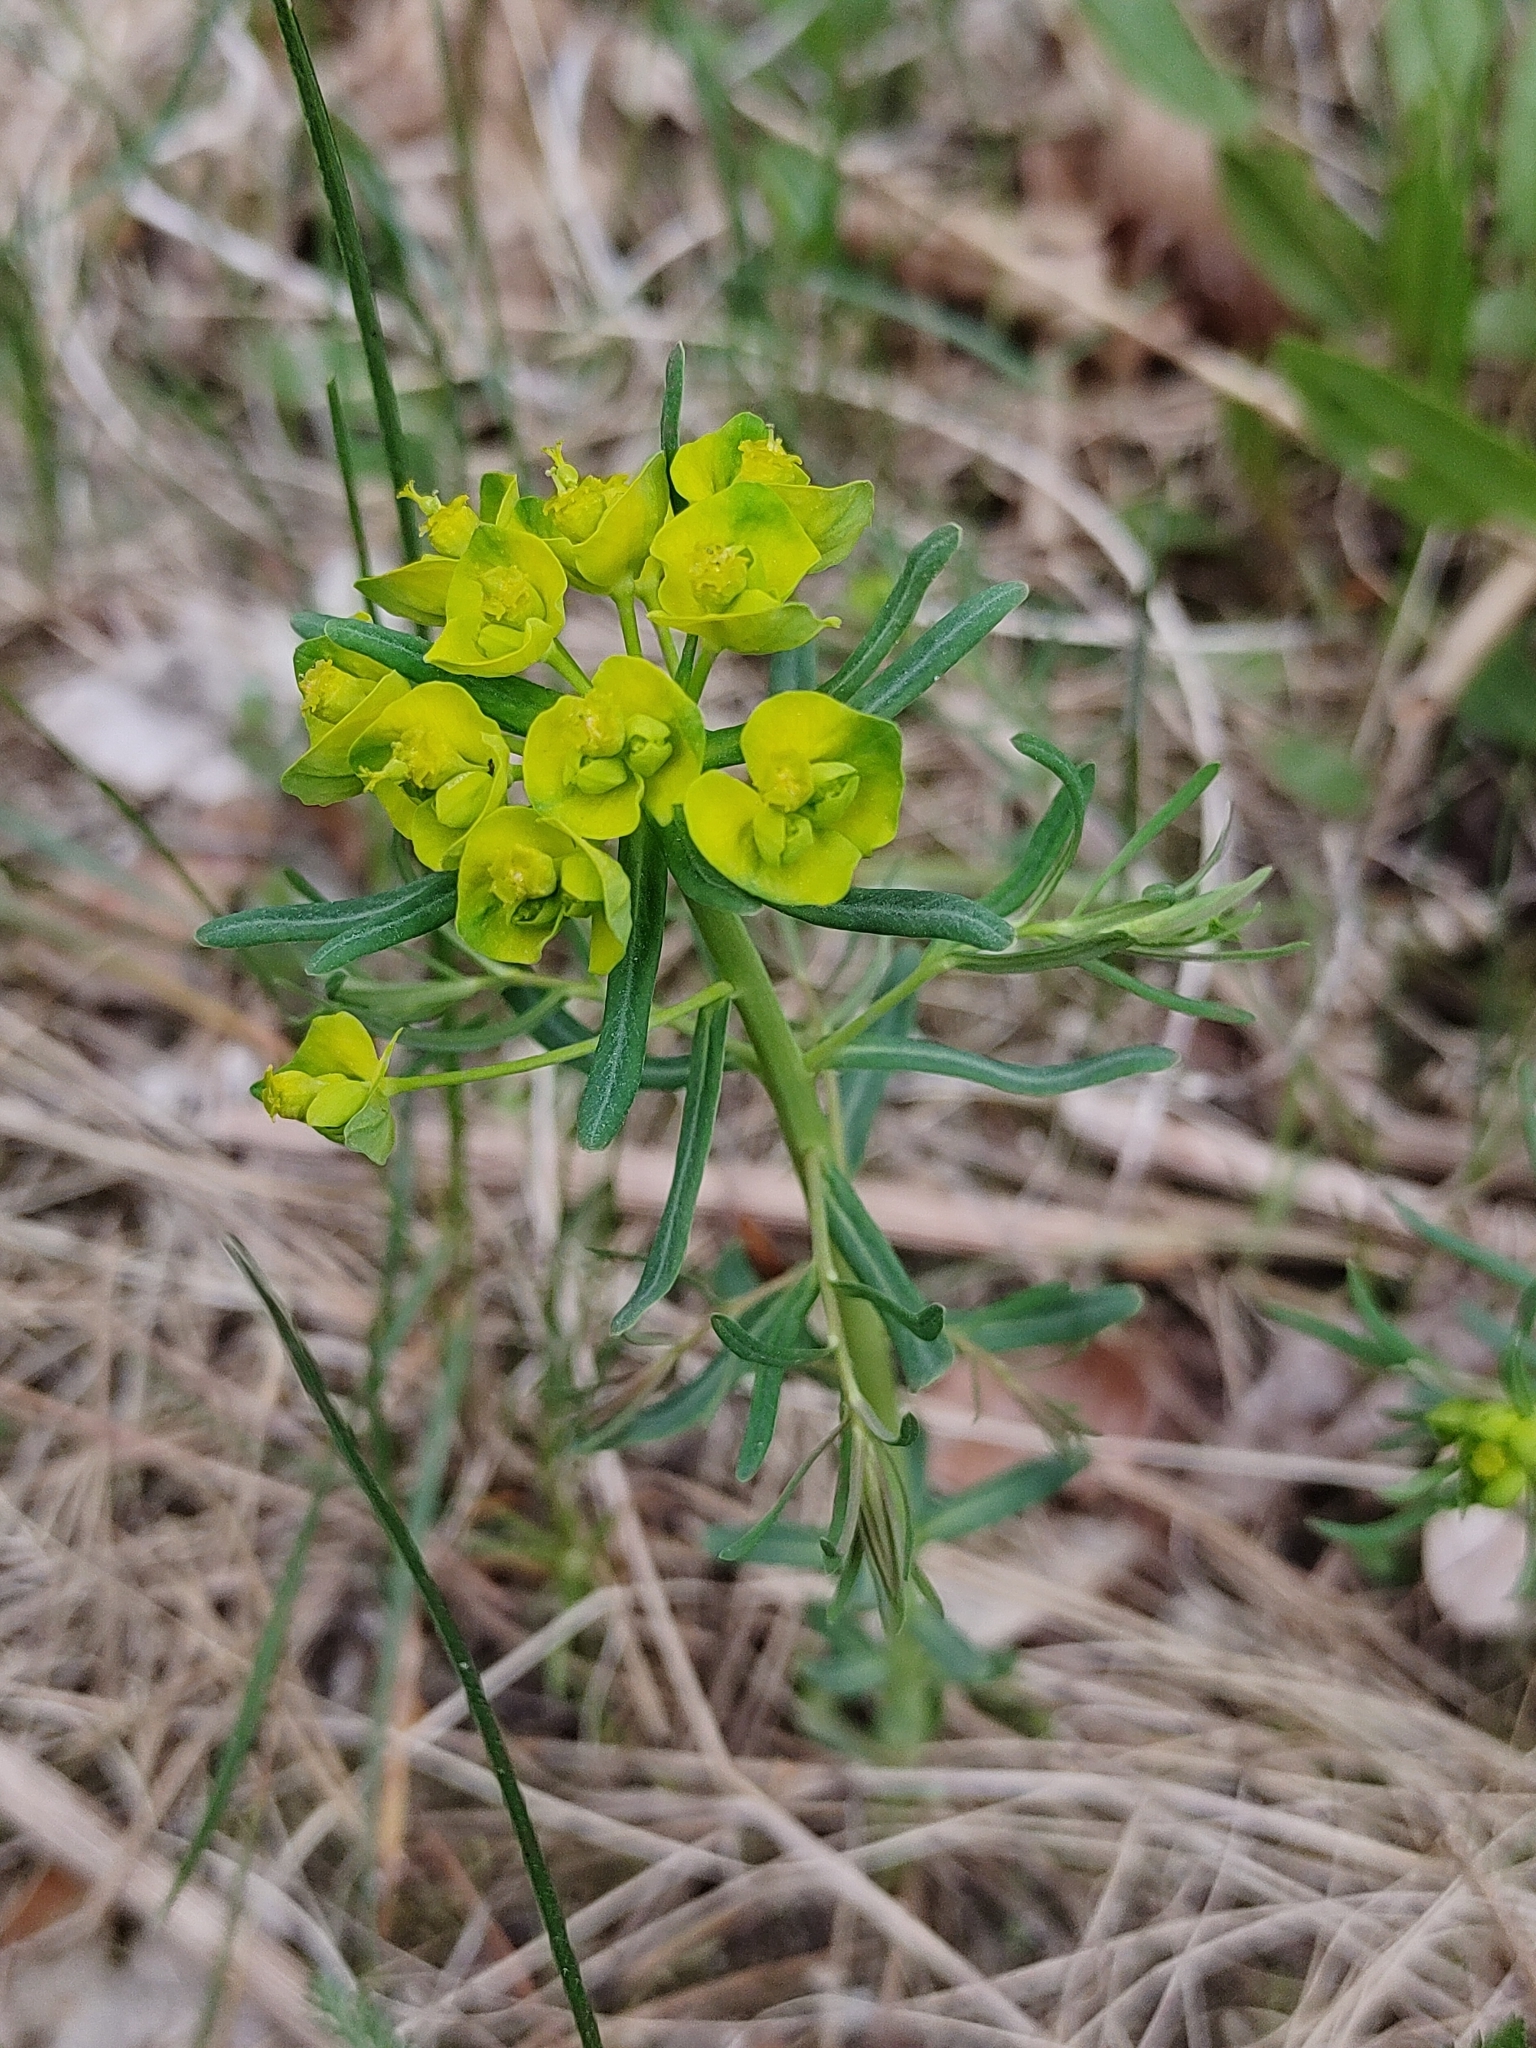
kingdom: Plantae
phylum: Tracheophyta
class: Magnoliopsida
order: Malpighiales
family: Euphorbiaceae
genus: Euphorbia
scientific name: Euphorbia cyparissias
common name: Cypress spurge
